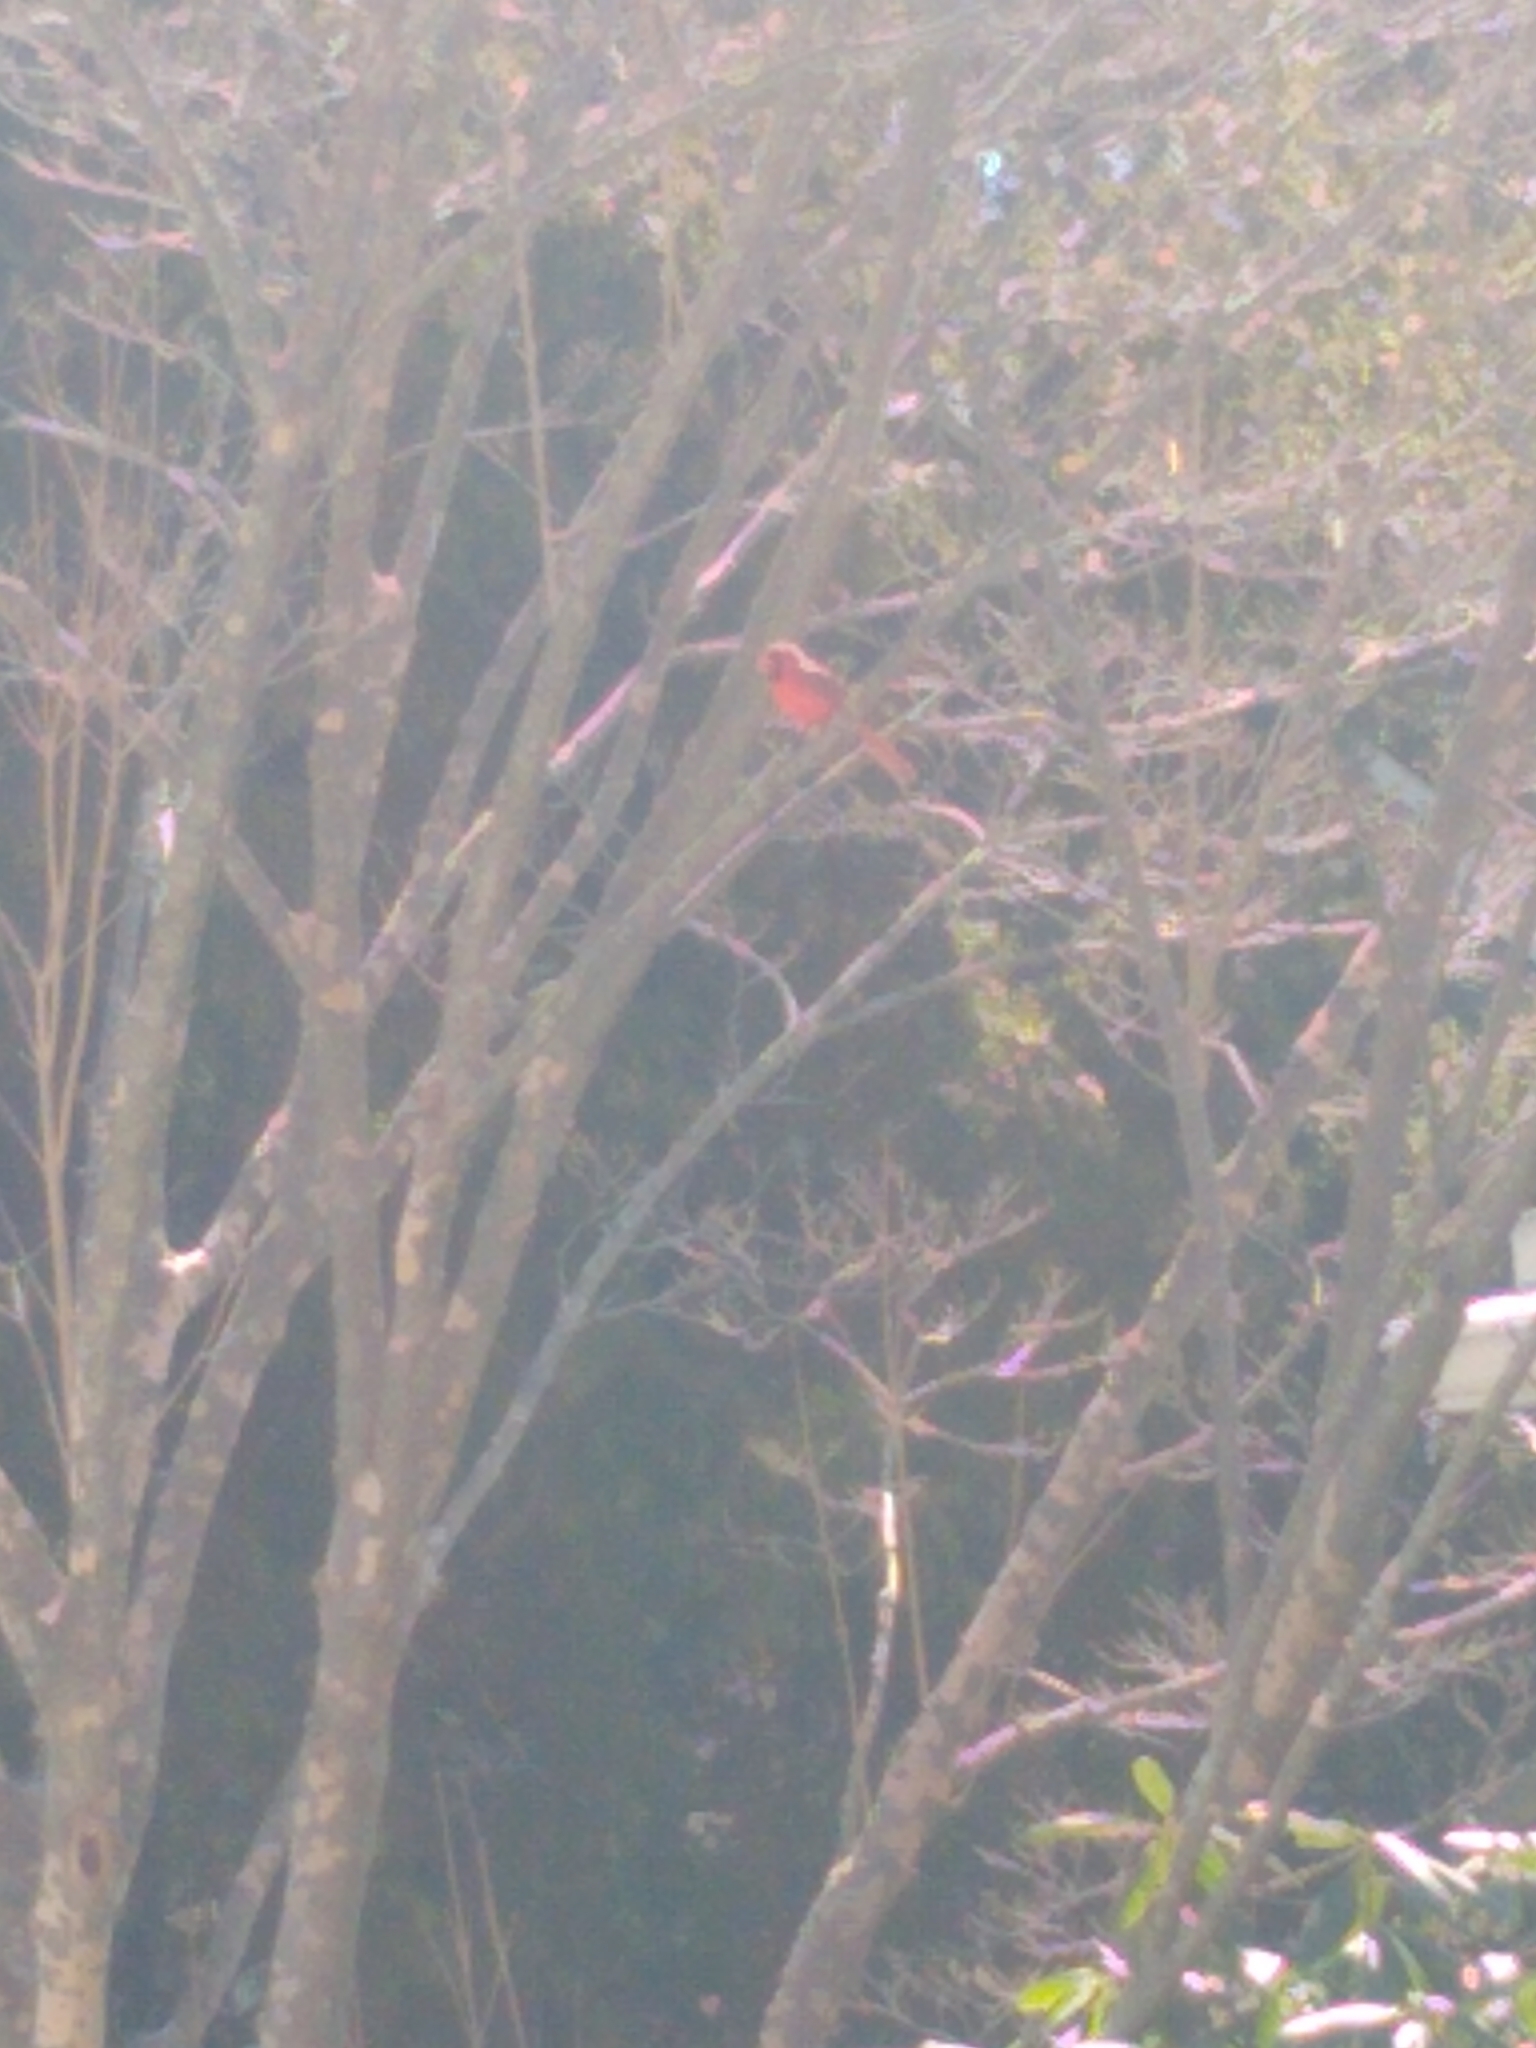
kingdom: Animalia
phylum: Chordata
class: Aves
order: Passeriformes
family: Cardinalidae
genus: Cardinalis
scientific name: Cardinalis cardinalis
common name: Northern cardinal
